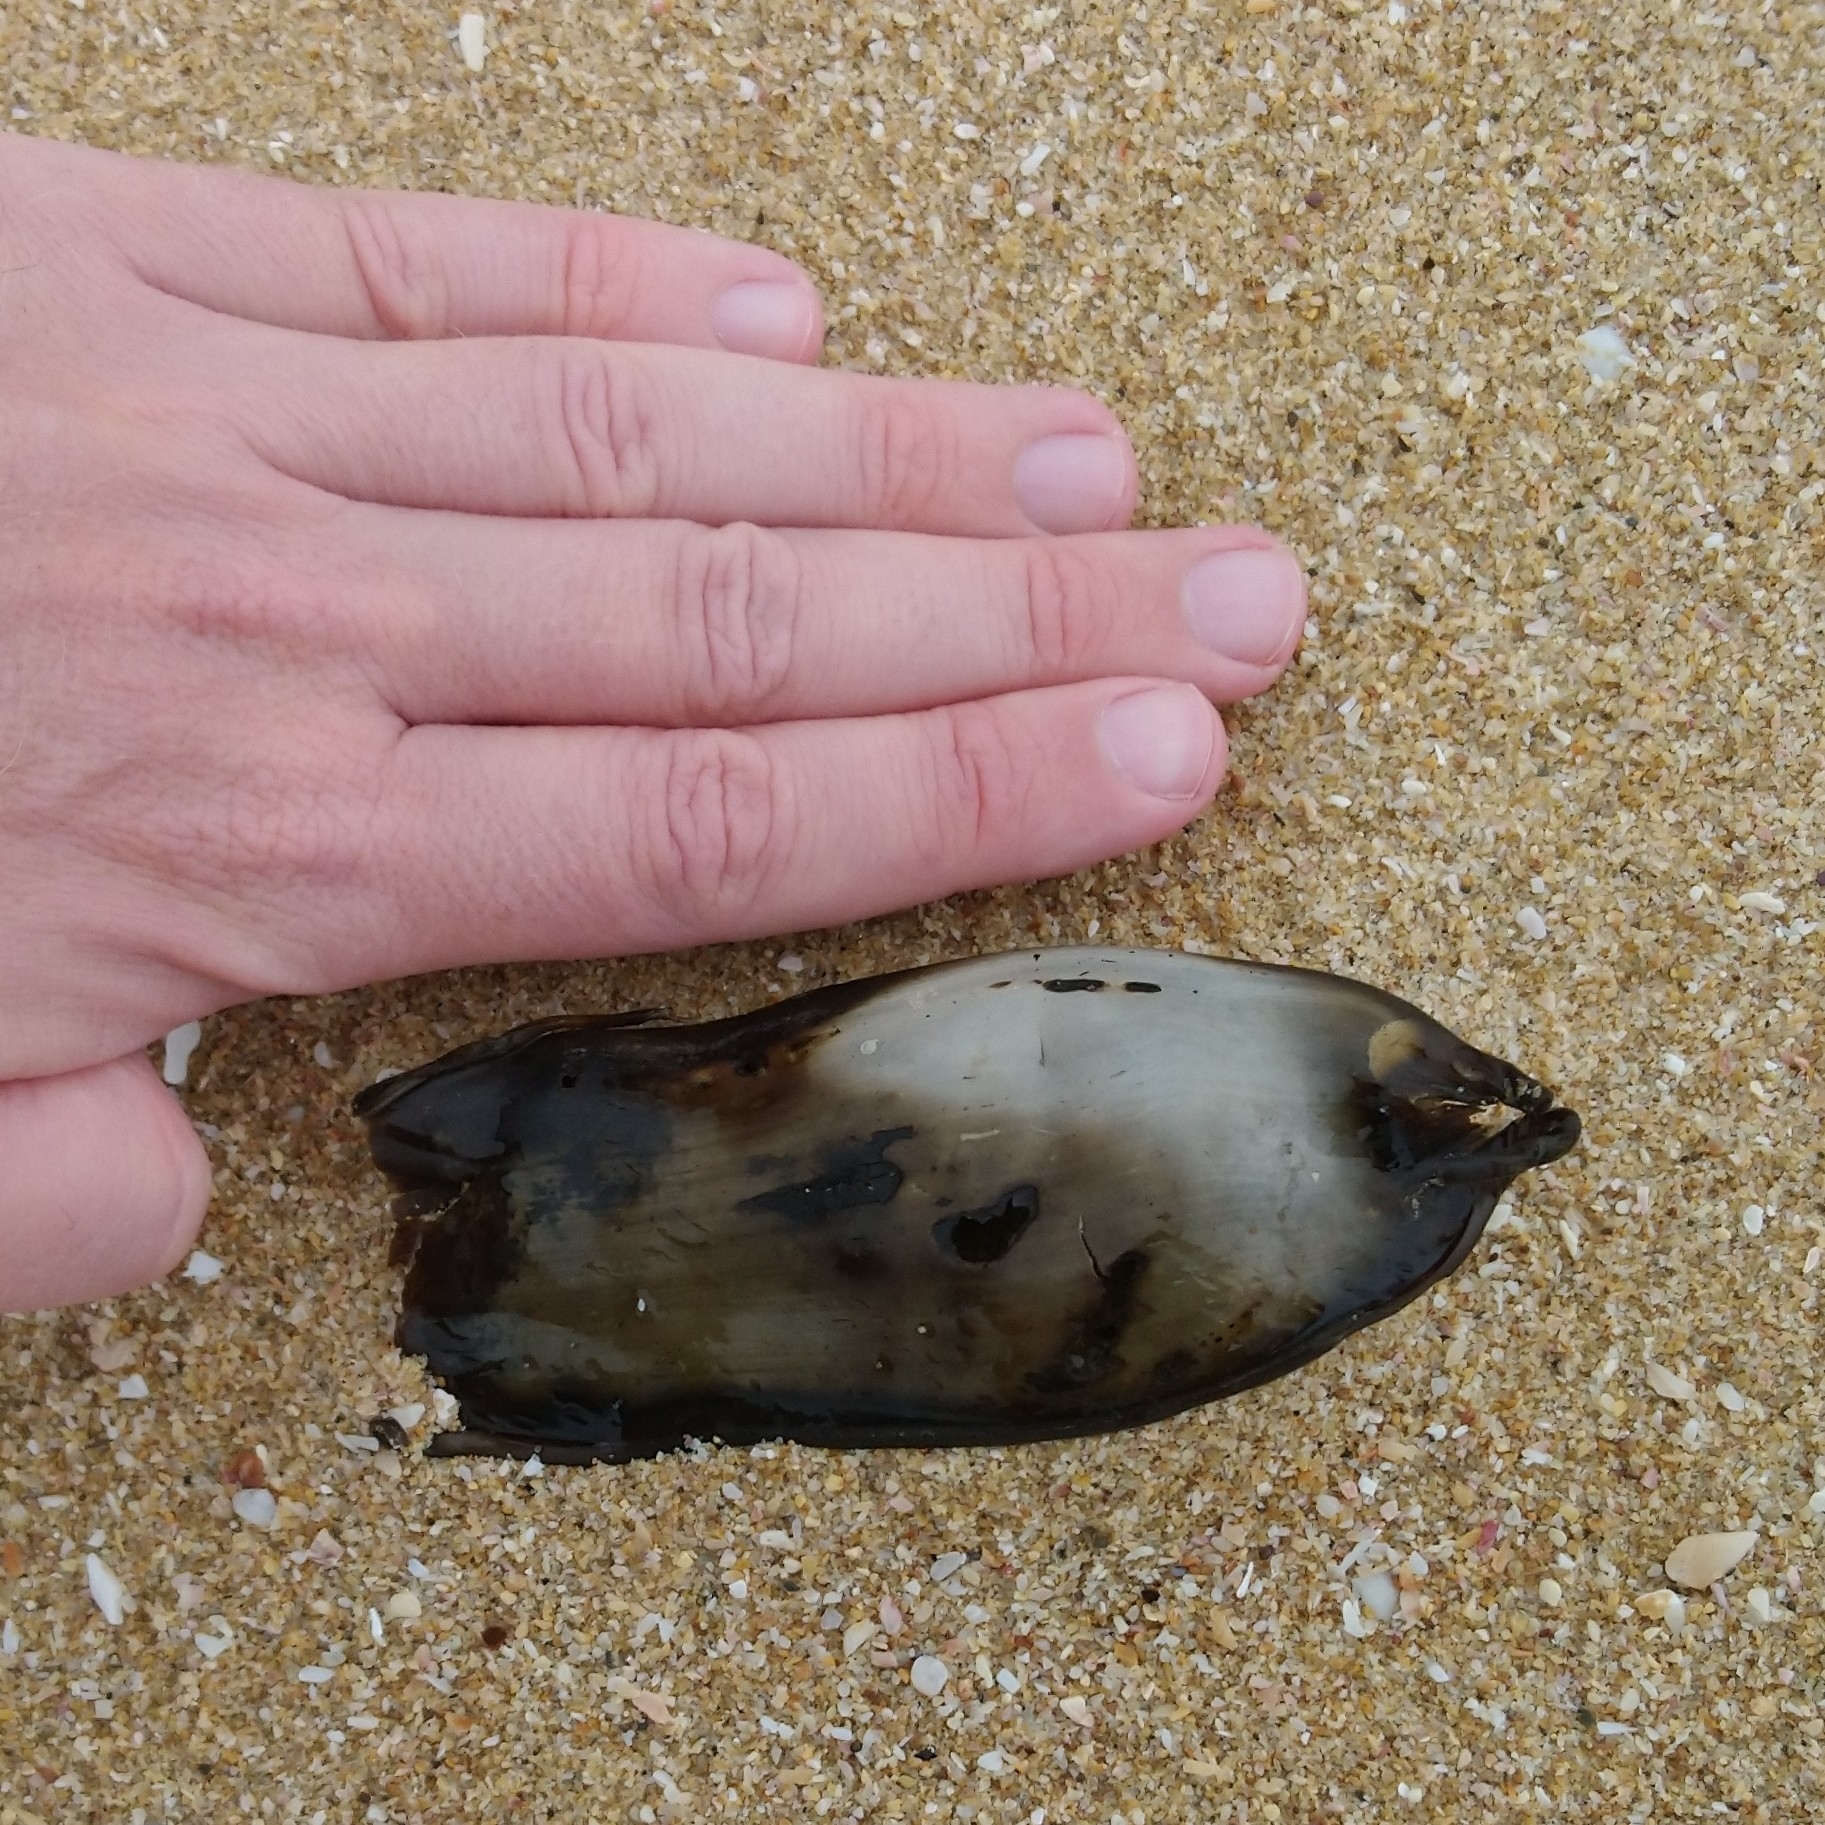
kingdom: Animalia
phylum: Chordata
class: Elasmobranchii
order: Carcharhiniformes
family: Scyliorhinidae
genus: Poroderma
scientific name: Poroderma africanum
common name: Pyjama shark
